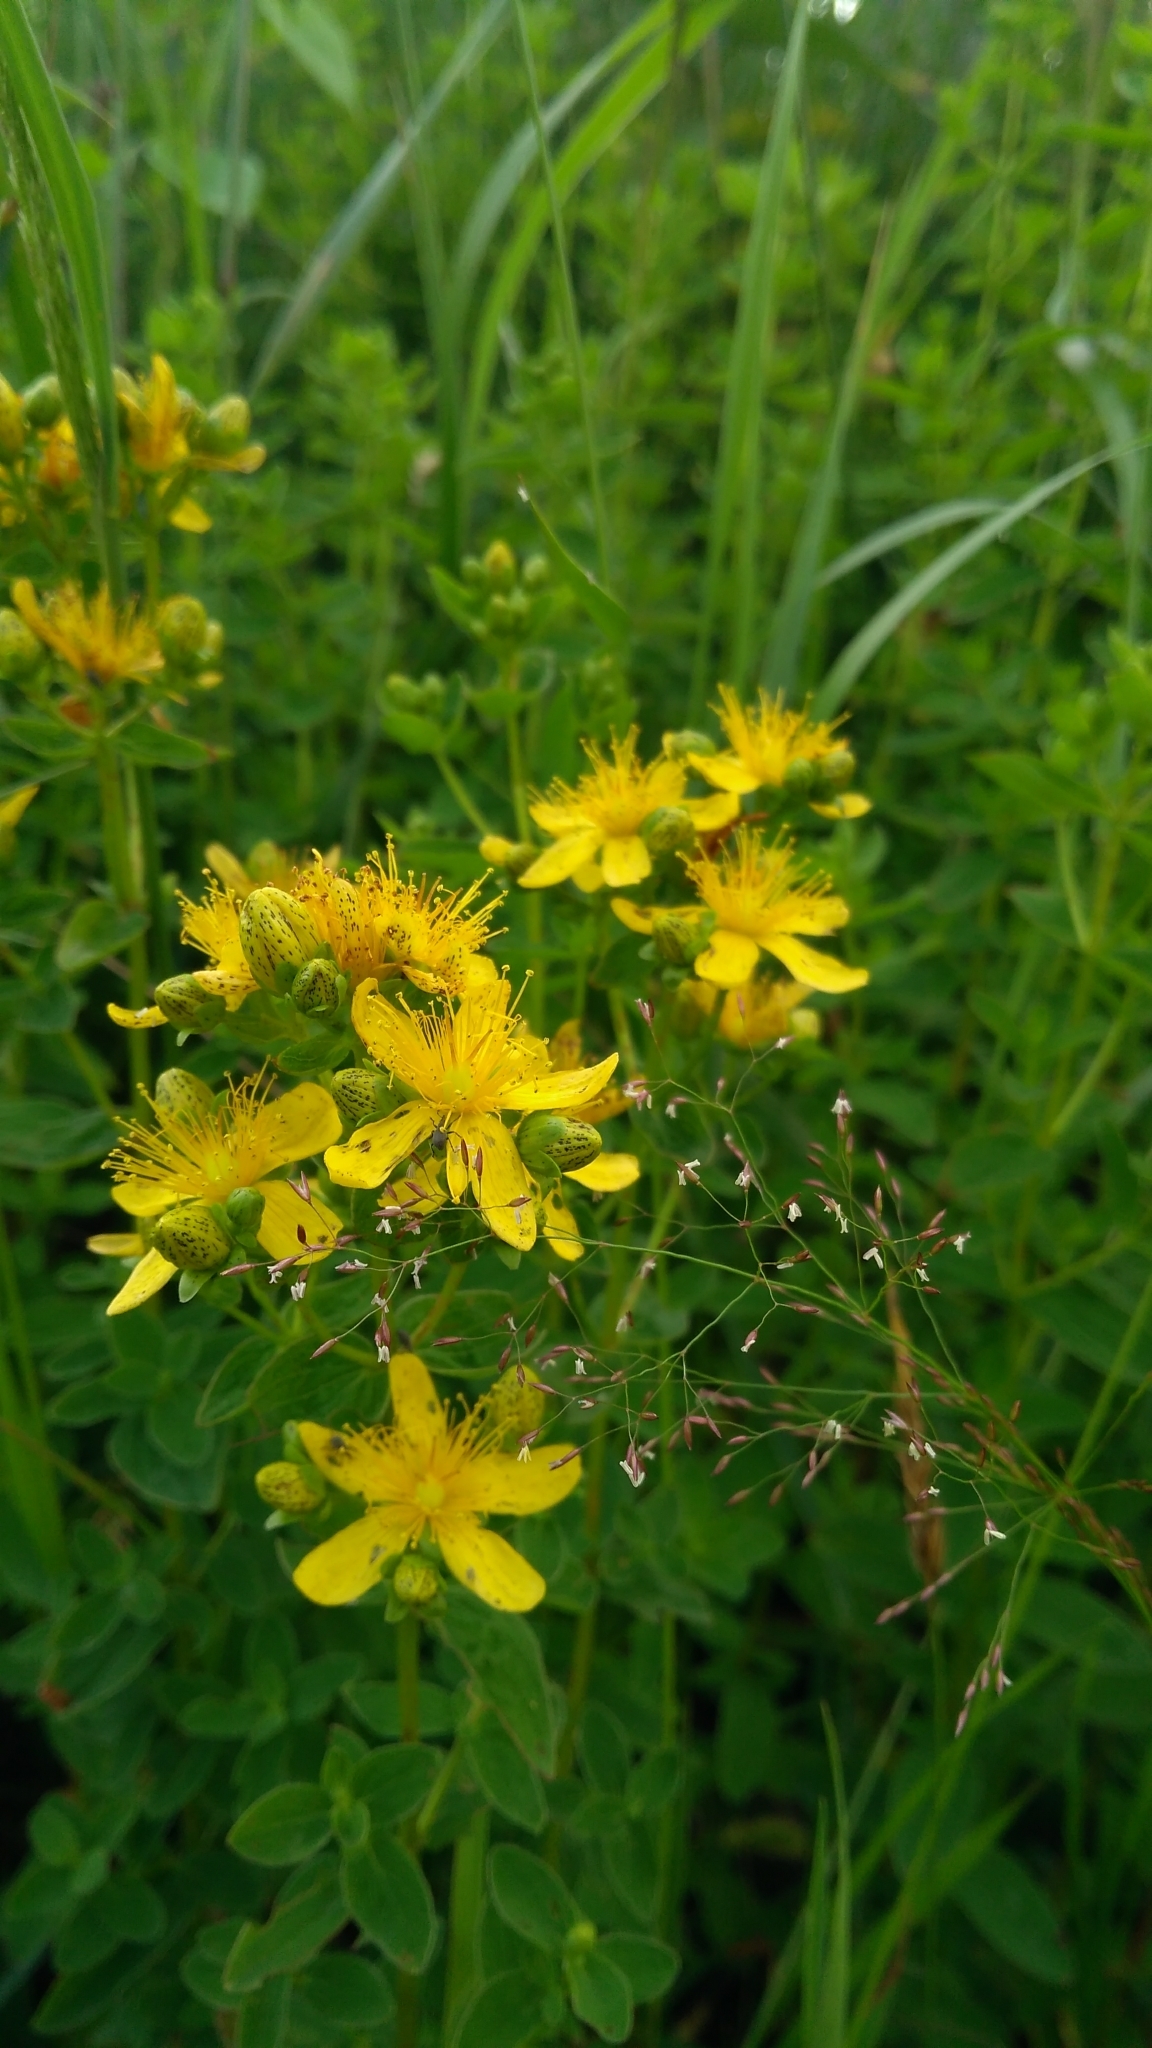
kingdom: Plantae
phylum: Tracheophyta
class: Magnoliopsida
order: Malpighiales
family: Hypericaceae
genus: Hypericum
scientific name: Hypericum maculatum
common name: Imperforate st. john's-wort
